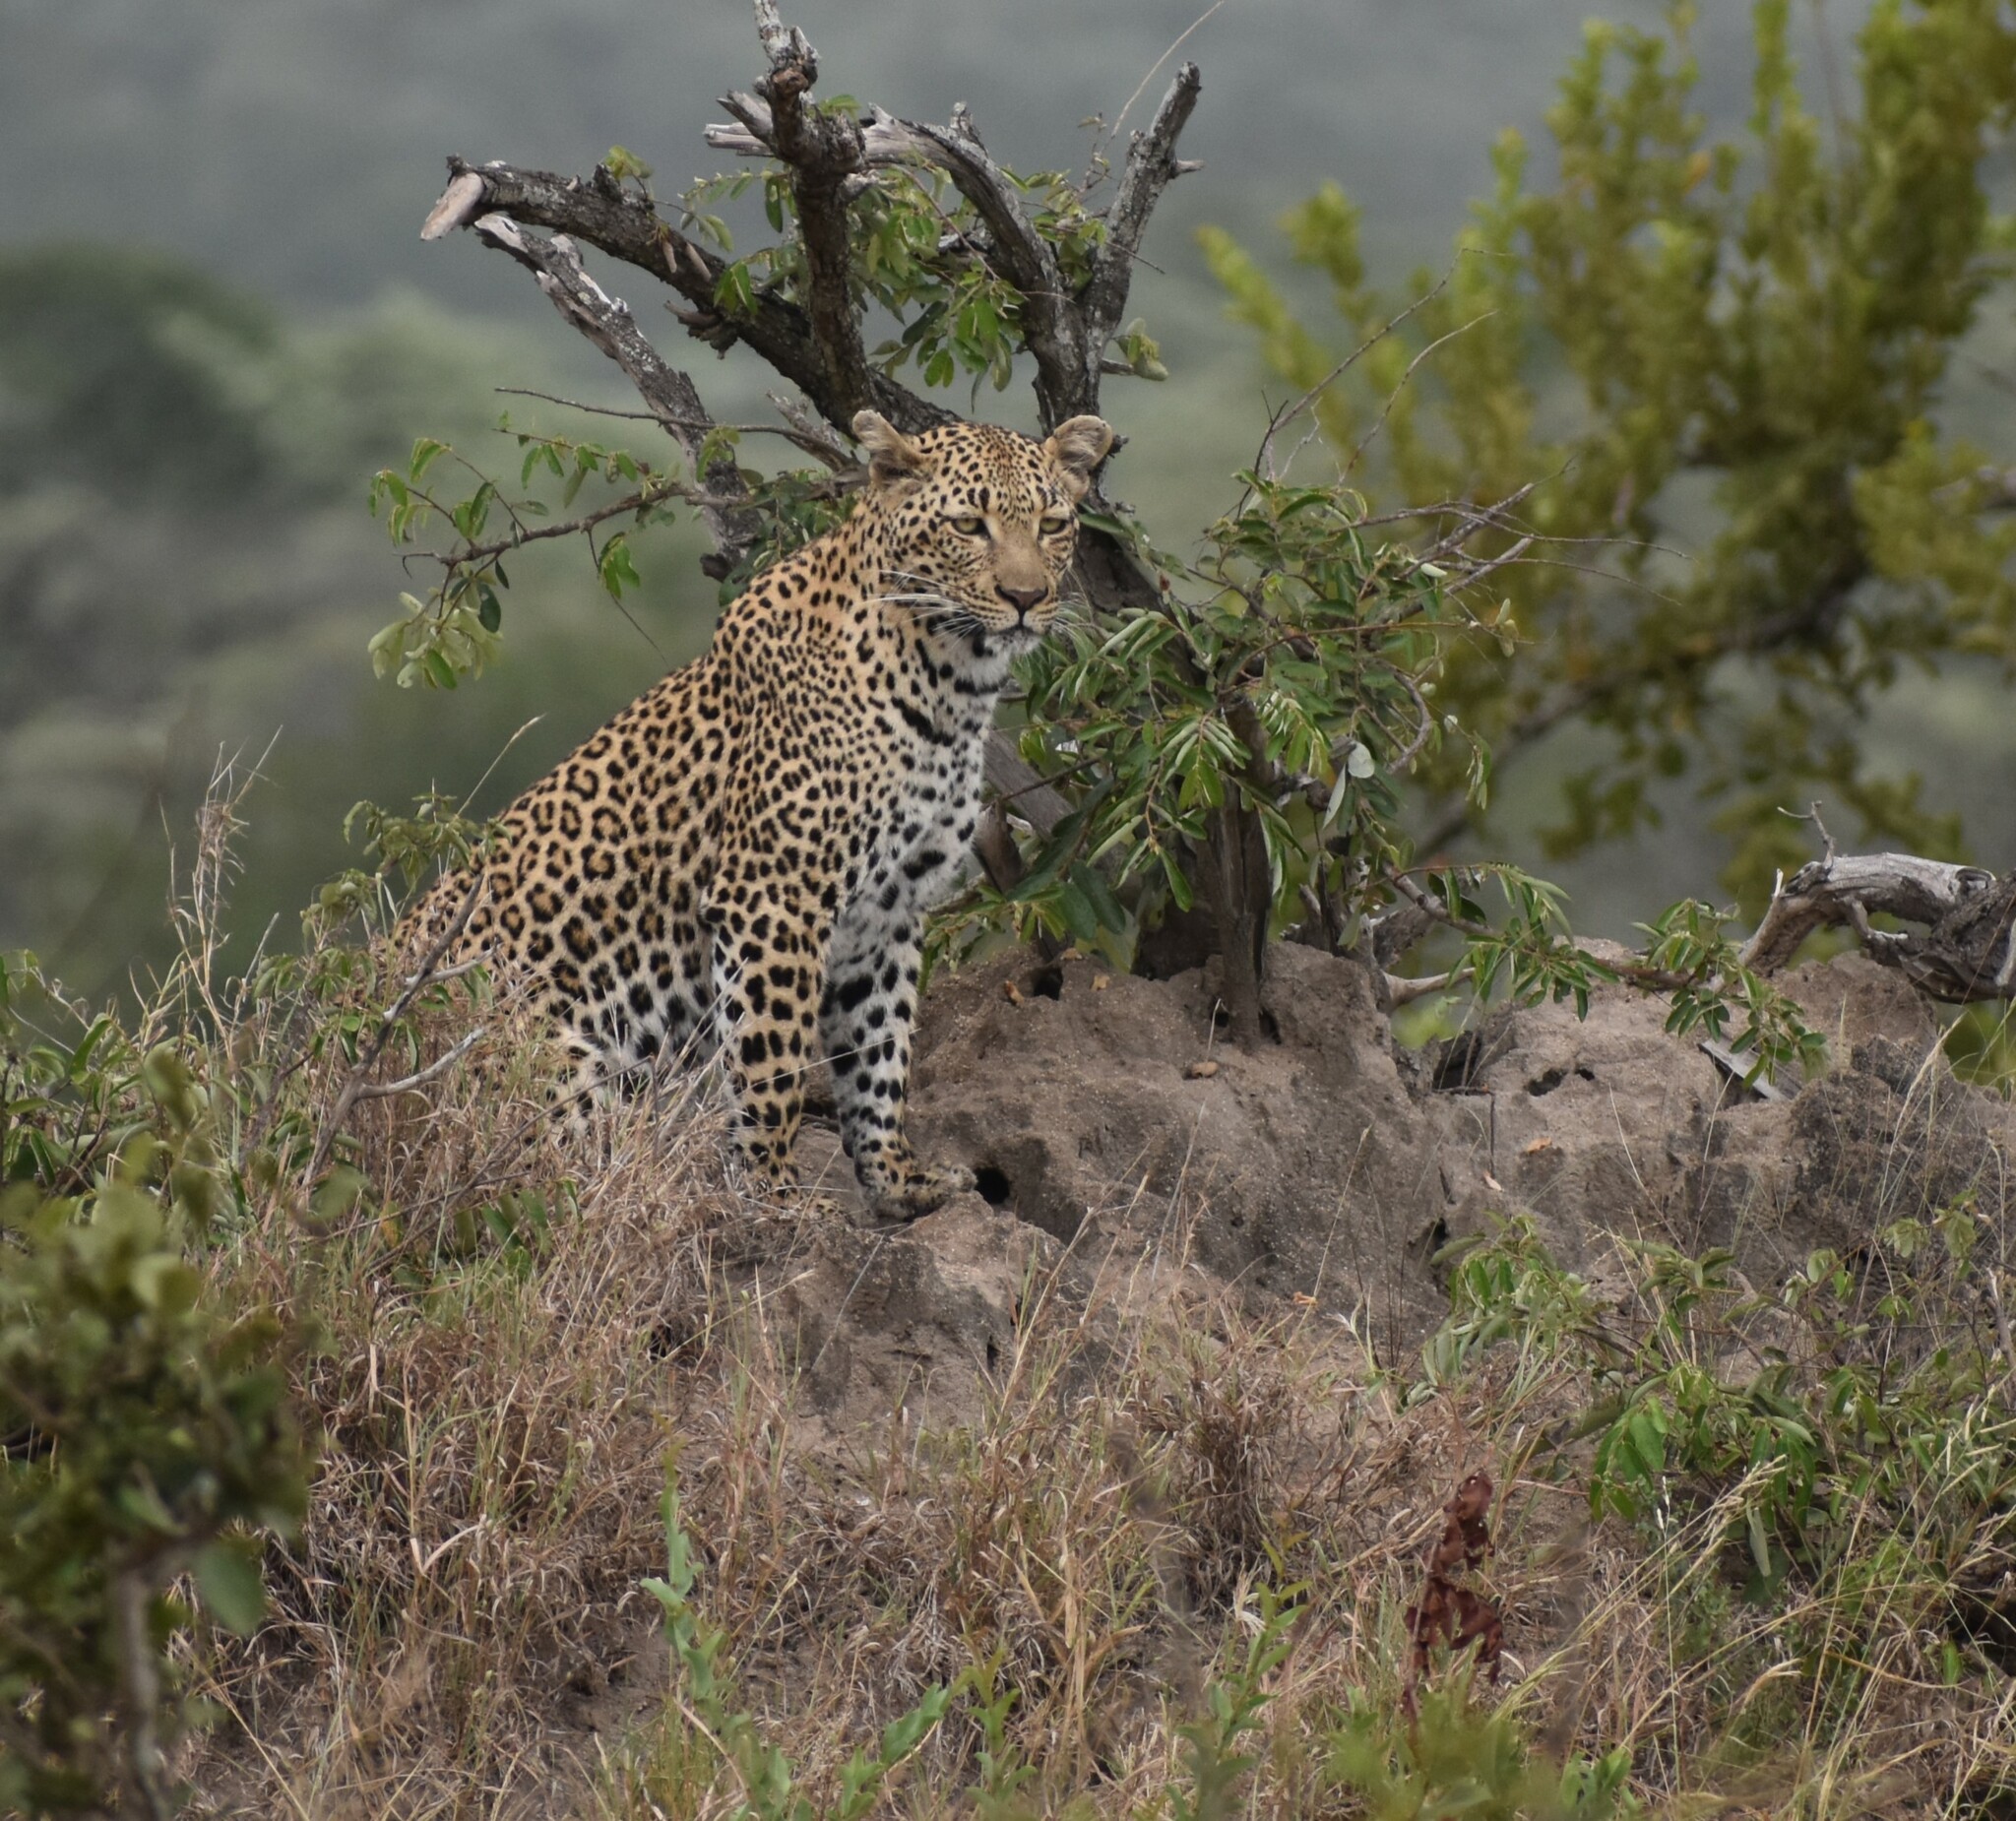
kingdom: Animalia
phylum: Chordata
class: Mammalia
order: Carnivora
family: Felidae
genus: Panthera
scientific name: Panthera pardus
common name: Leopard
